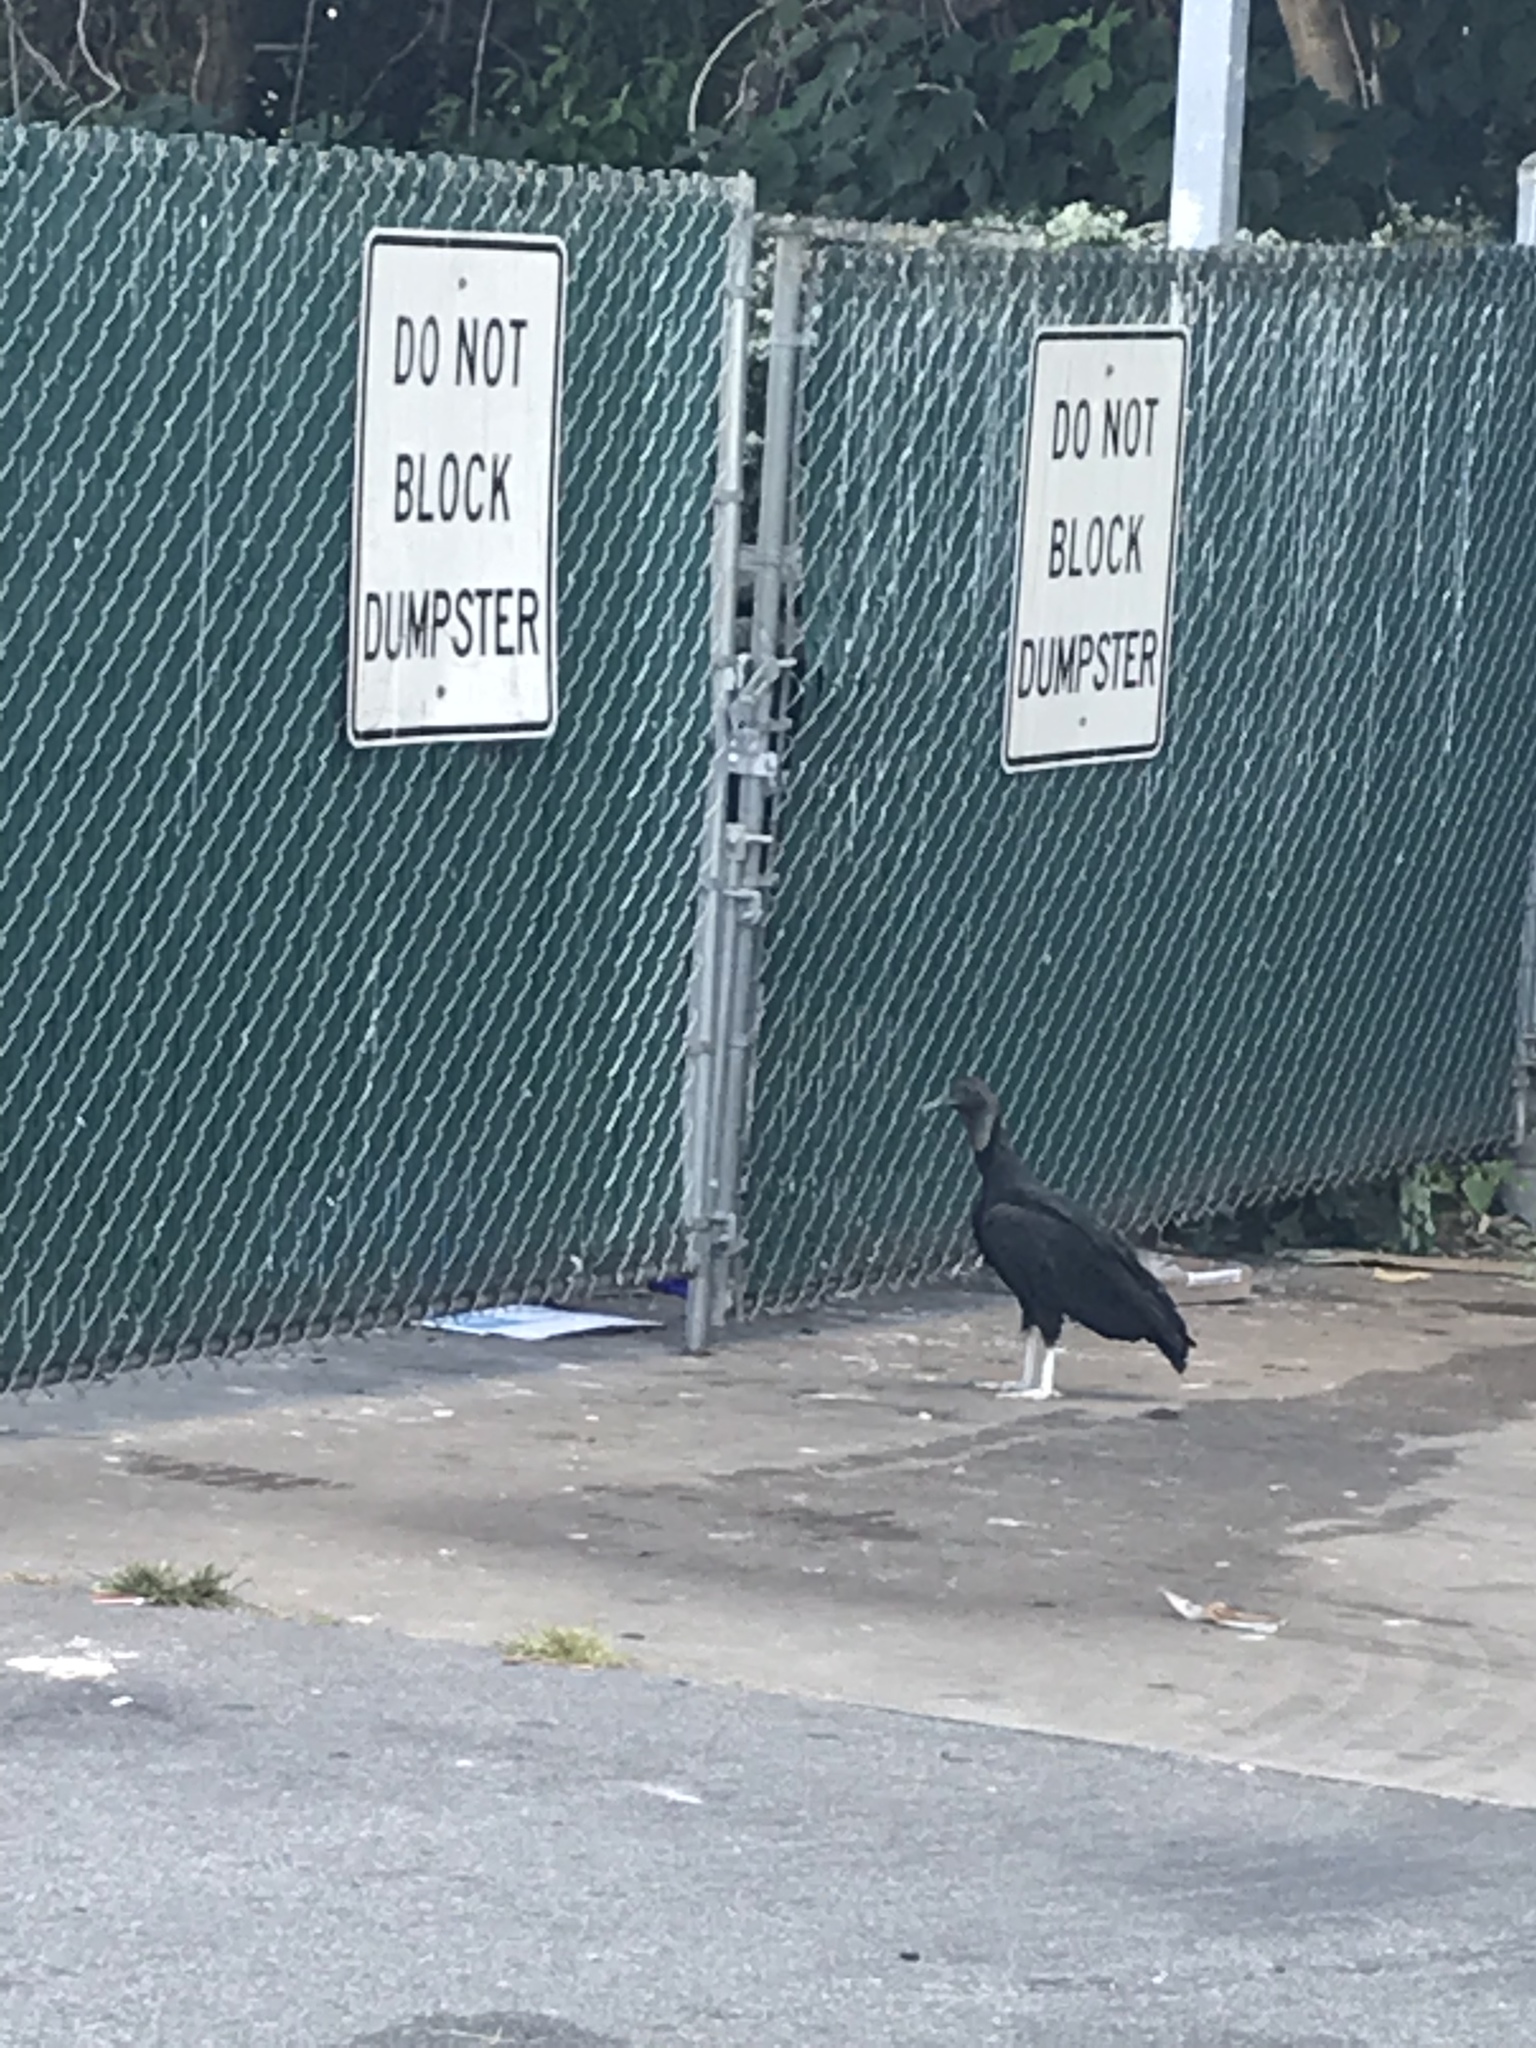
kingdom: Animalia
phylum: Chordata
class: Aves
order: Accipitriformes
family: Cathartidae
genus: Coragyps
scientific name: Coragyps atratus
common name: Black vulture
